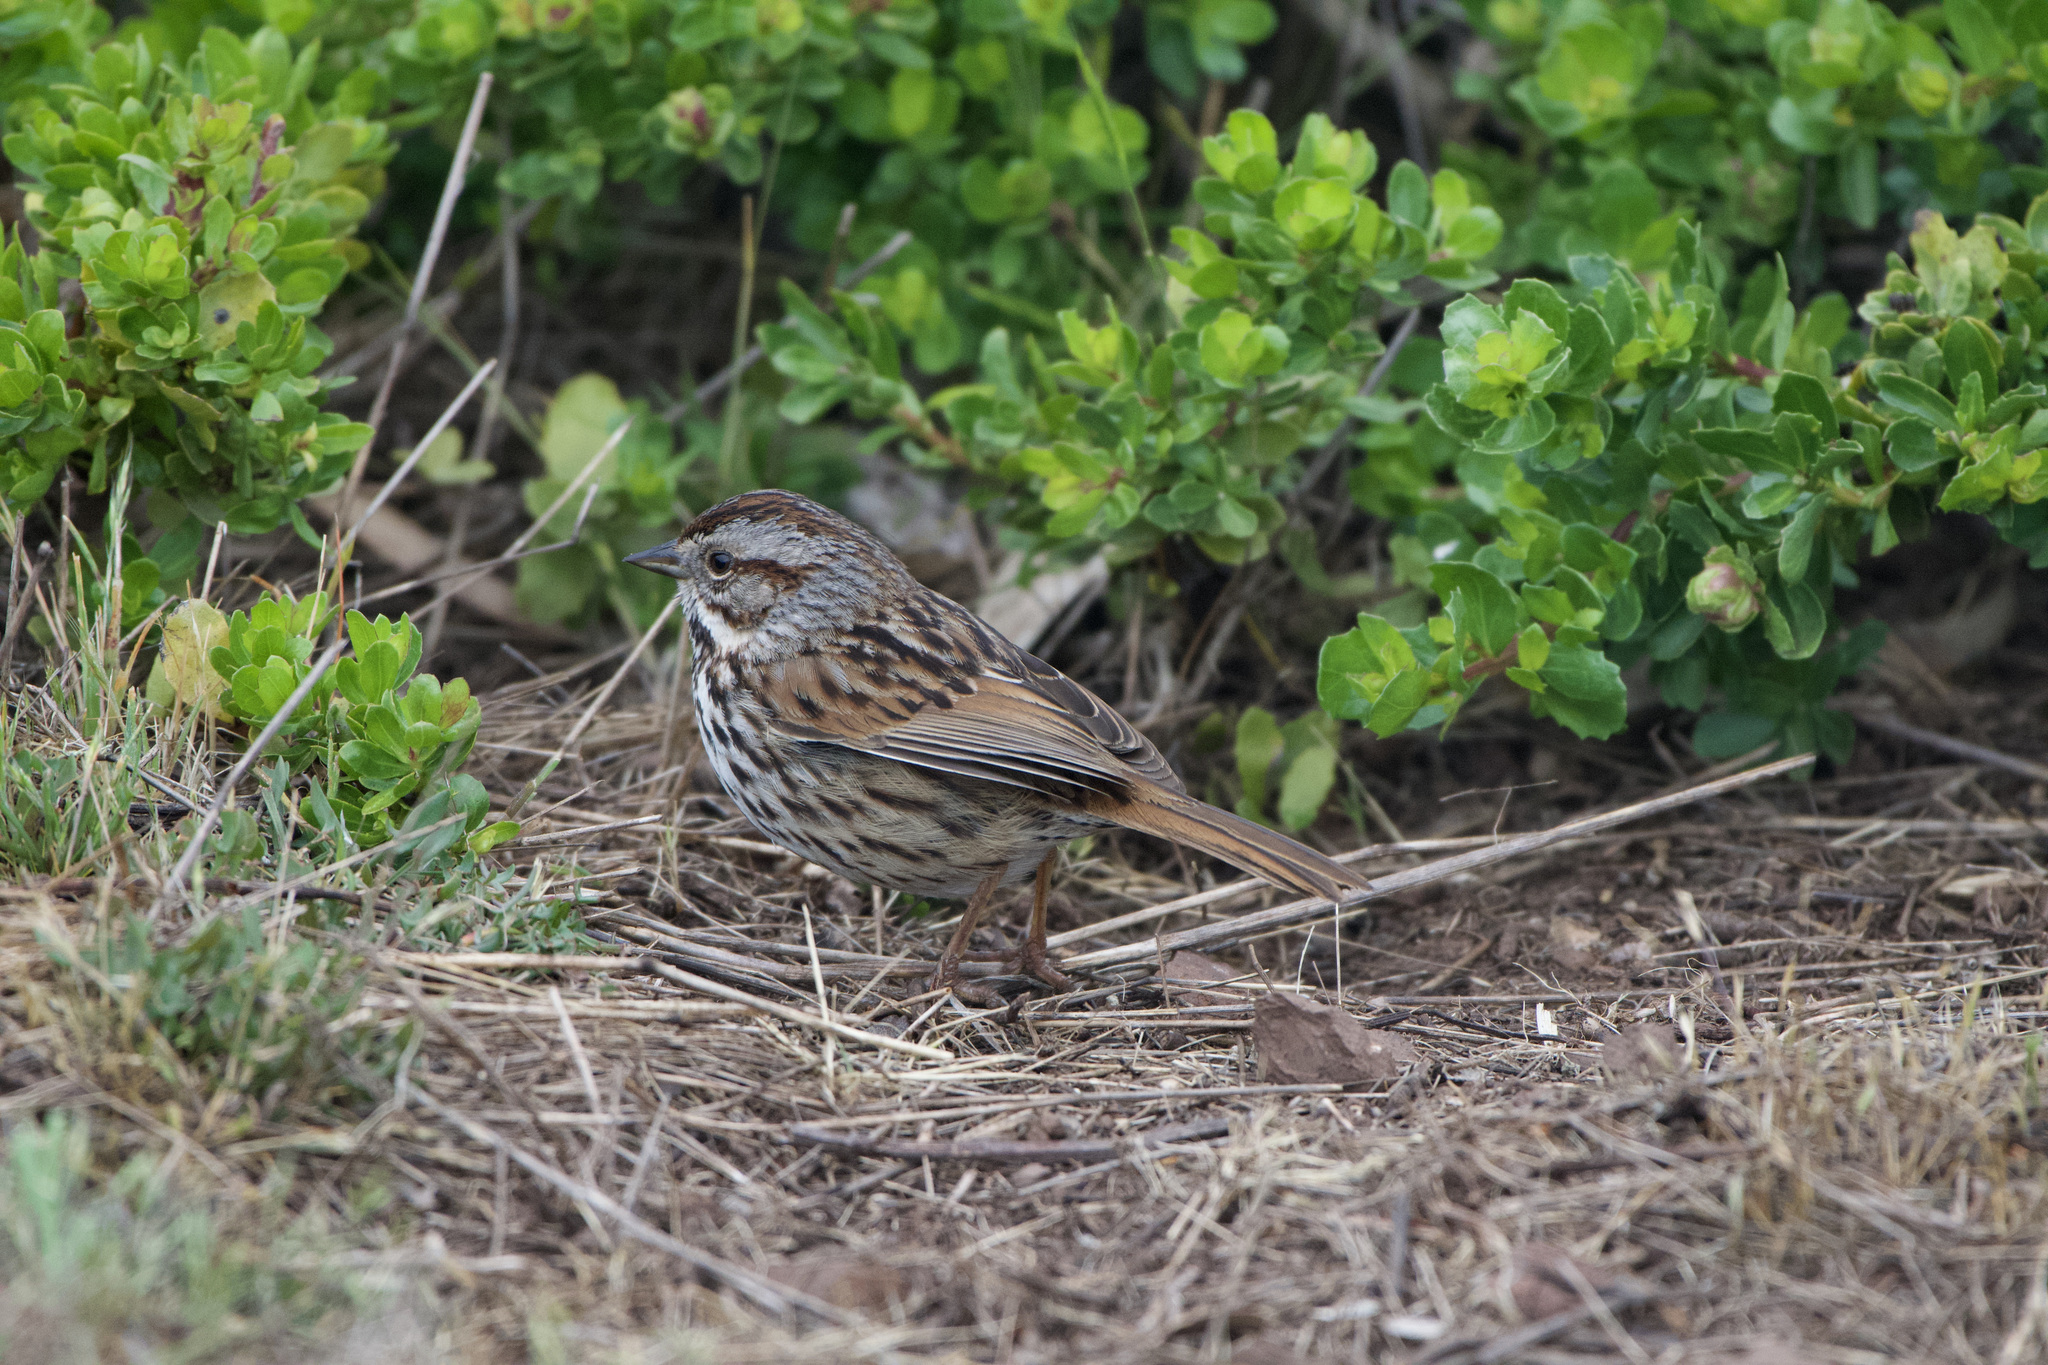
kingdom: Animalia
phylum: Chordata
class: Aves
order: Passeriformes
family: Passerellidae
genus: Melospiza
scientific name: Melospiza melodia
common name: Song sparrow
